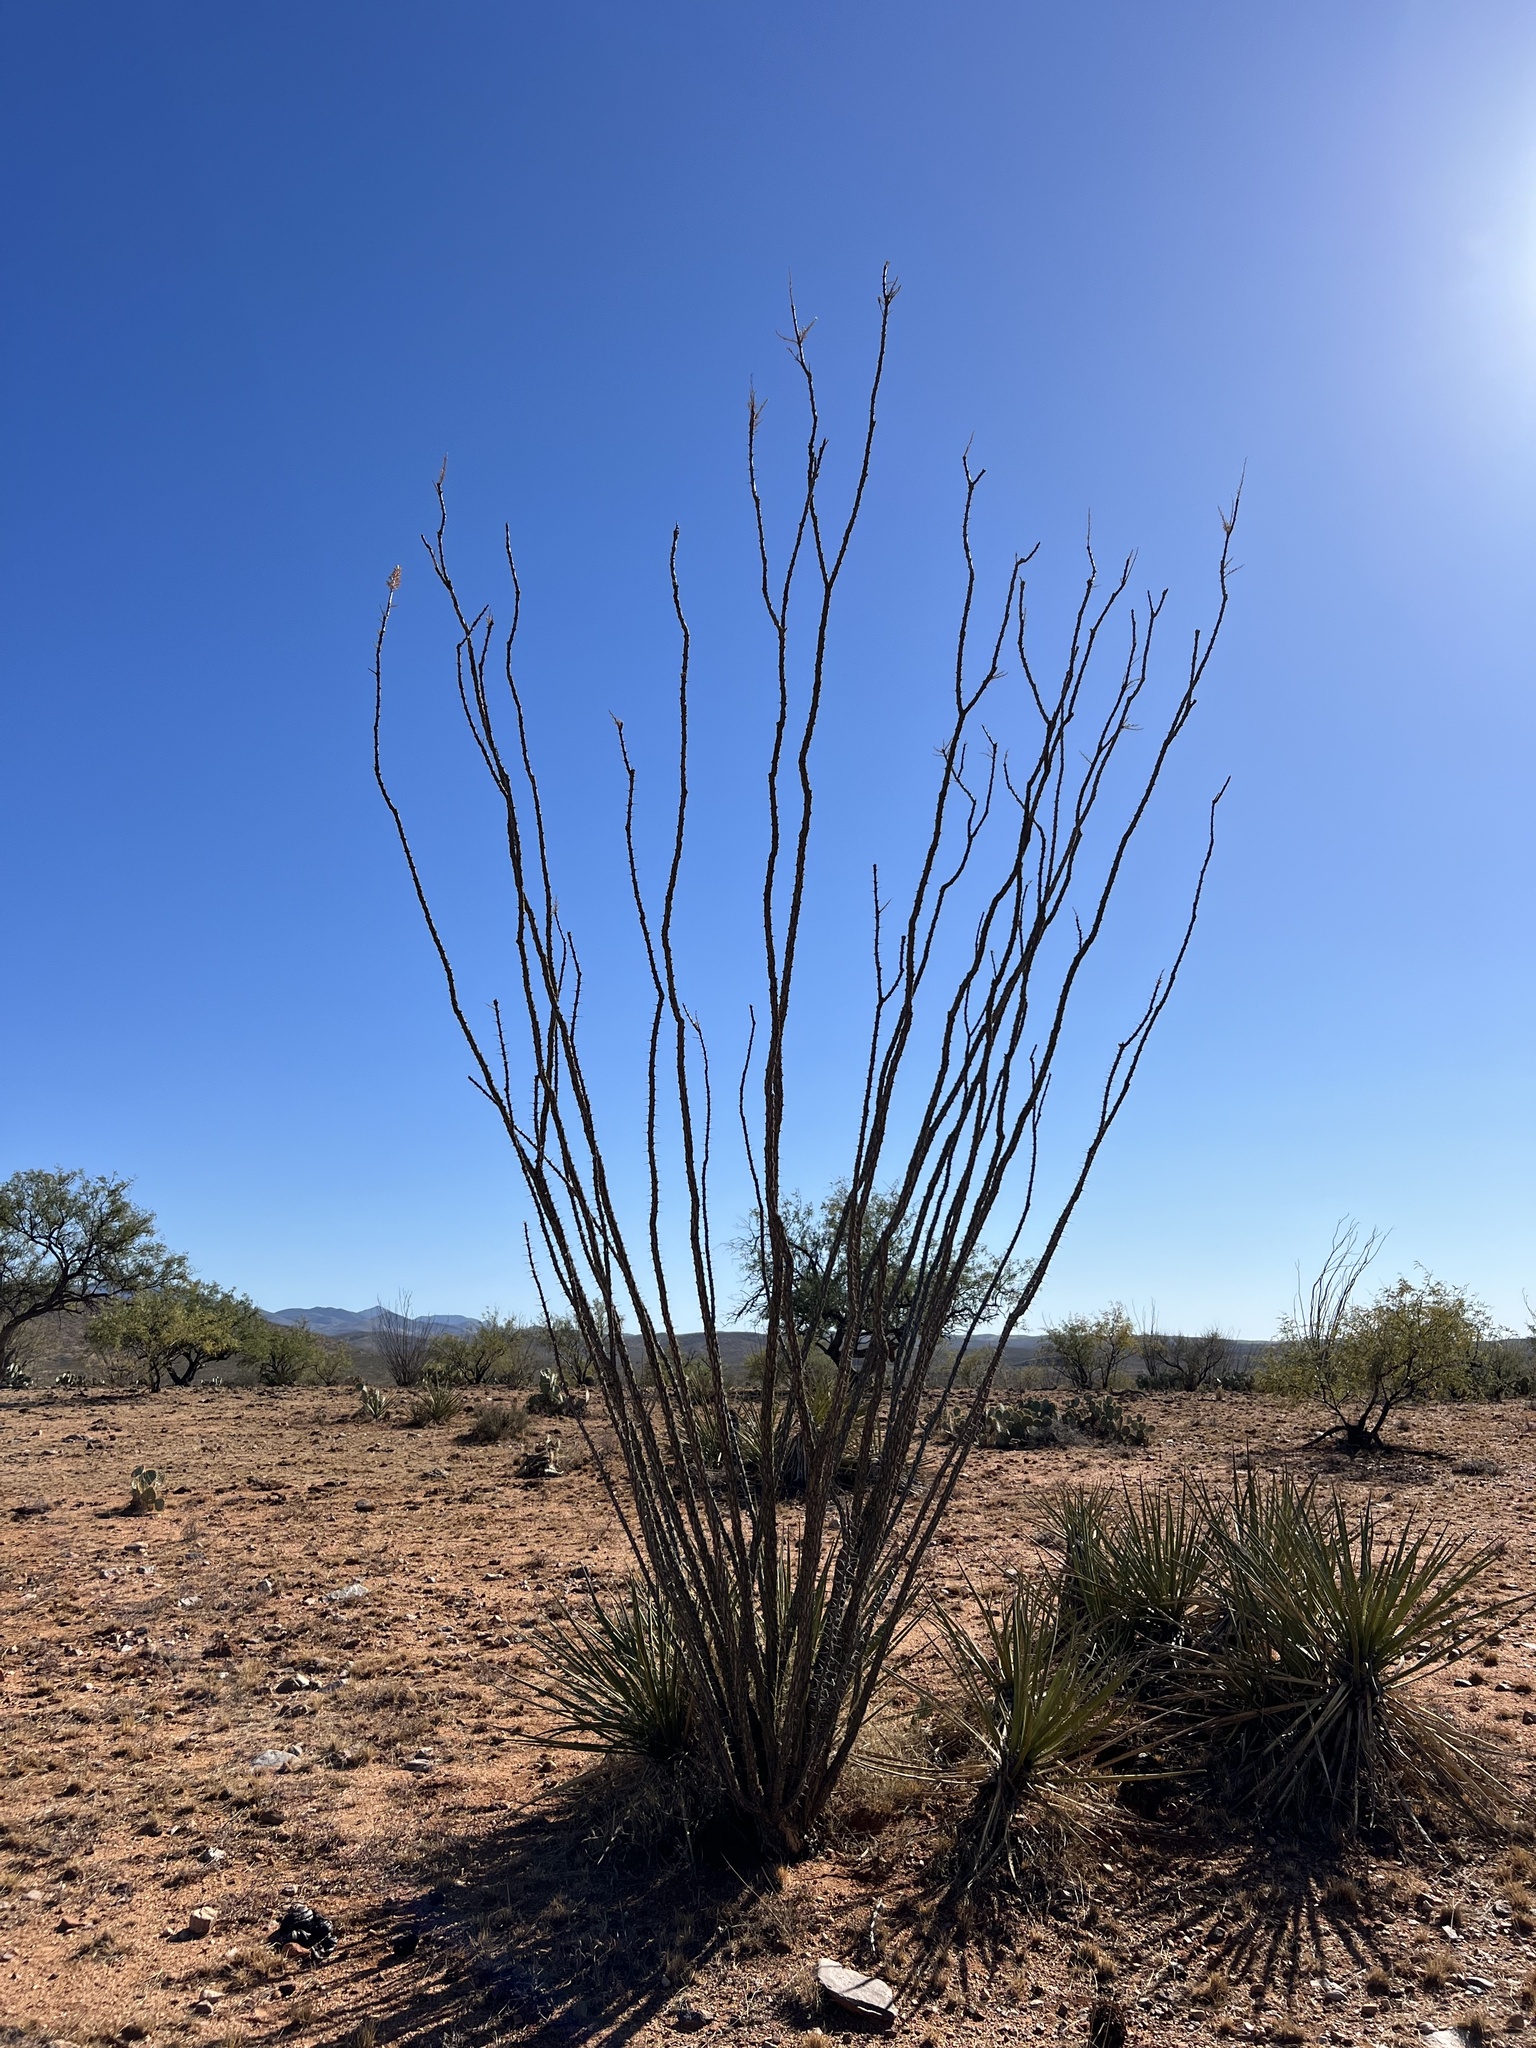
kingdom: Plantae
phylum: Tracheophyta
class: Magnoliopsida
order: Ericales
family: Fouquieriaceae
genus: Fouquieria
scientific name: Fouquieria splendens
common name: Vine-cactus
